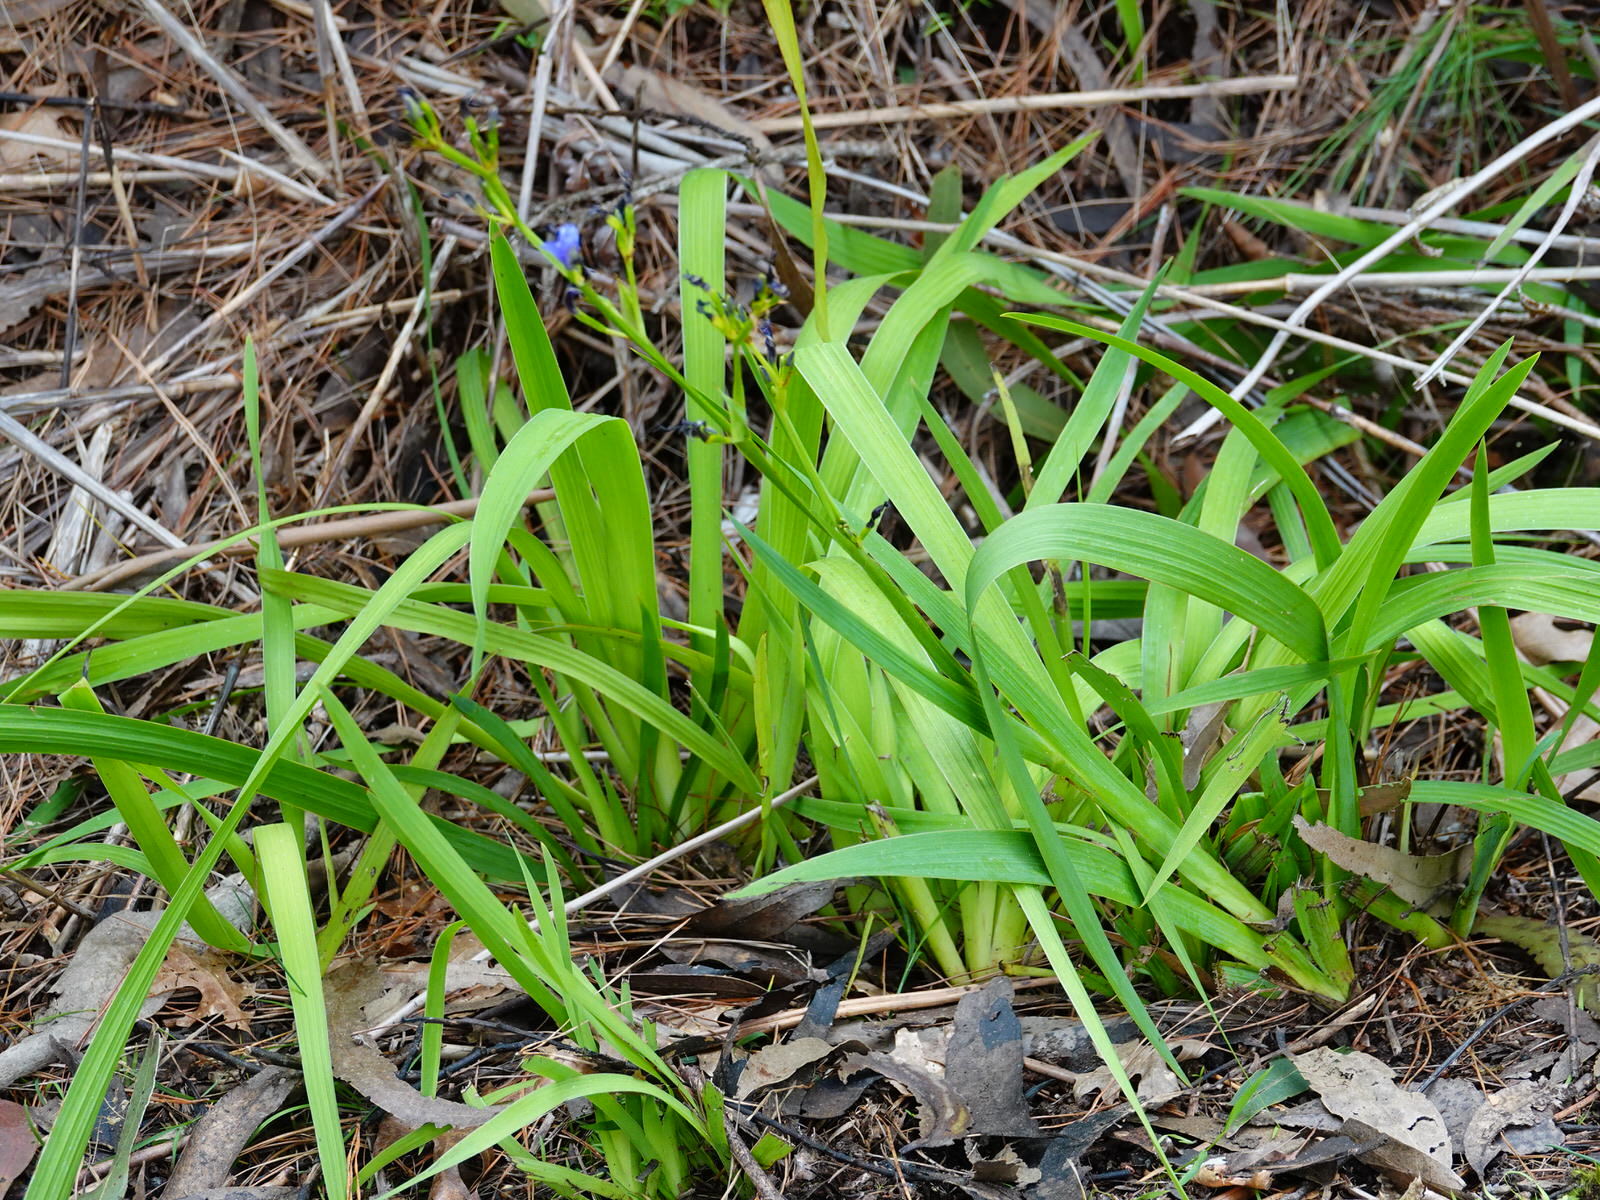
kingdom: Plantae
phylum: Tracheophyta
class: Liliopsida
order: Asparagales
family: Iridaceae
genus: Aristea
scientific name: Aristea ecklonii
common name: Blue corn-lily
